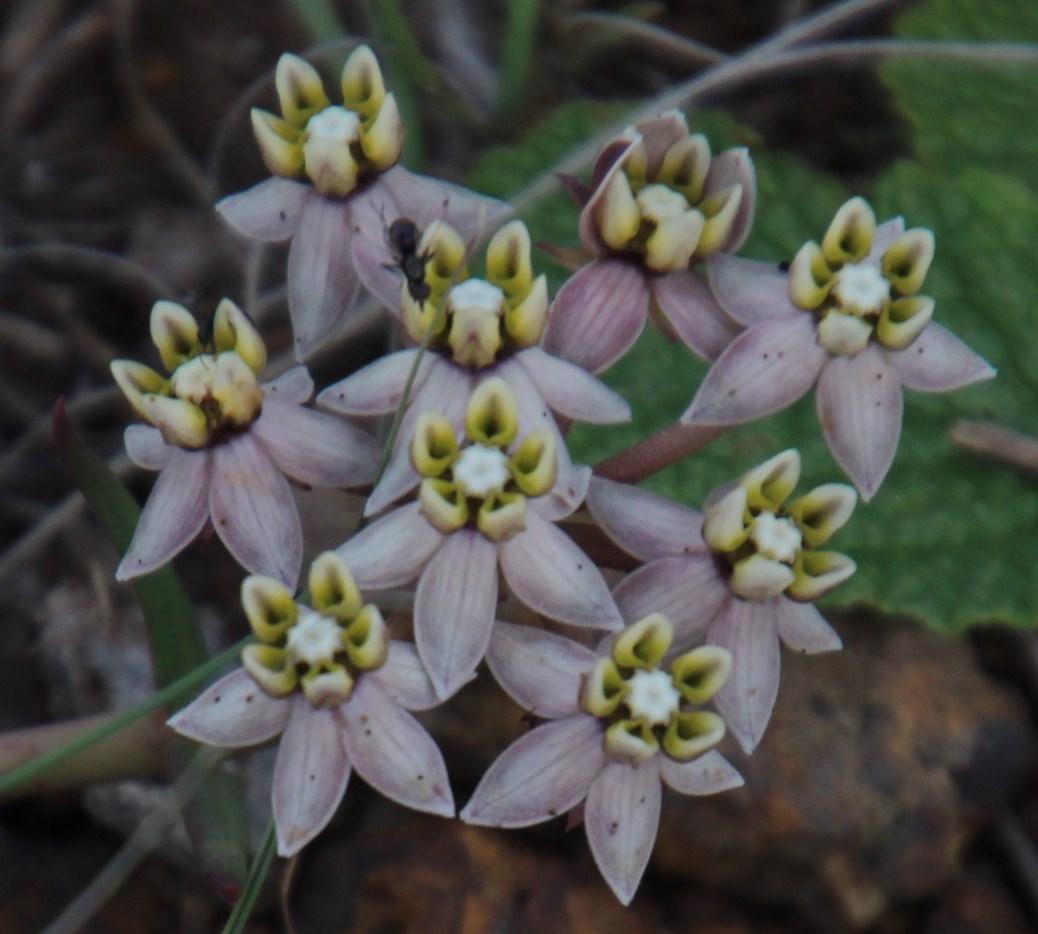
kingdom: Plantae
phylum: Tracheophyta
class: Magnoliopsida
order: Gentianales
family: Apocynaceae
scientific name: Apocynaceae
